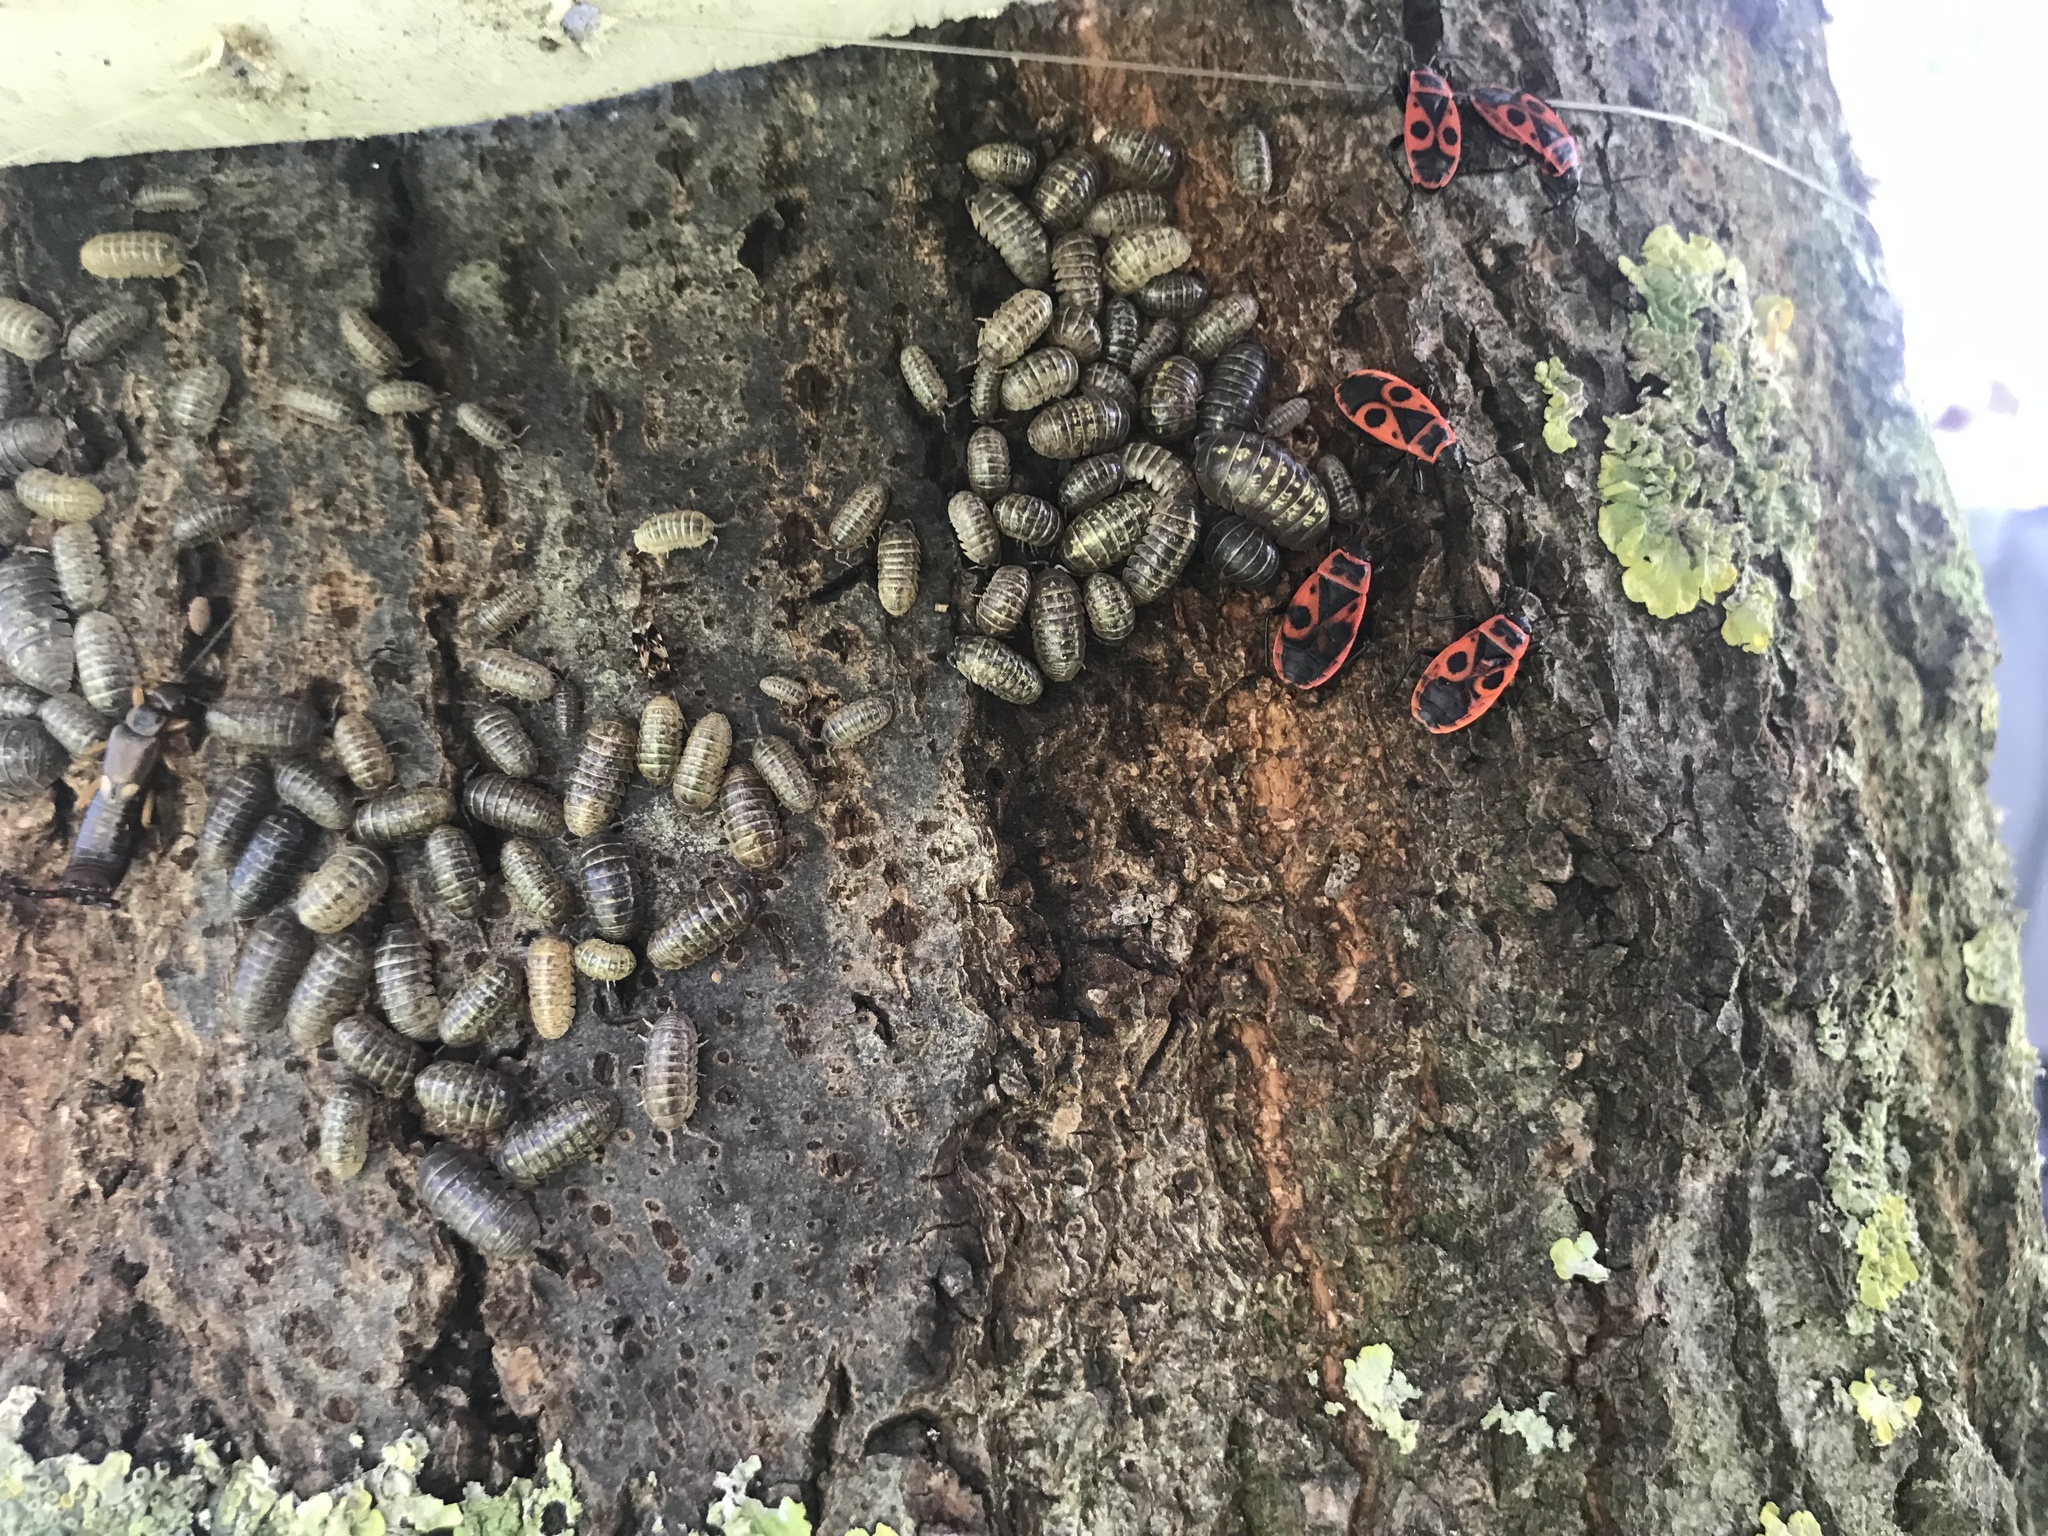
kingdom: Animalia
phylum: Arthropoda
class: Insecta
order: Hemiptera
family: Pyrrhocoridae
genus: Pyrrhocoris
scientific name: Pyrrhocoris apterus
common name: Firebug
